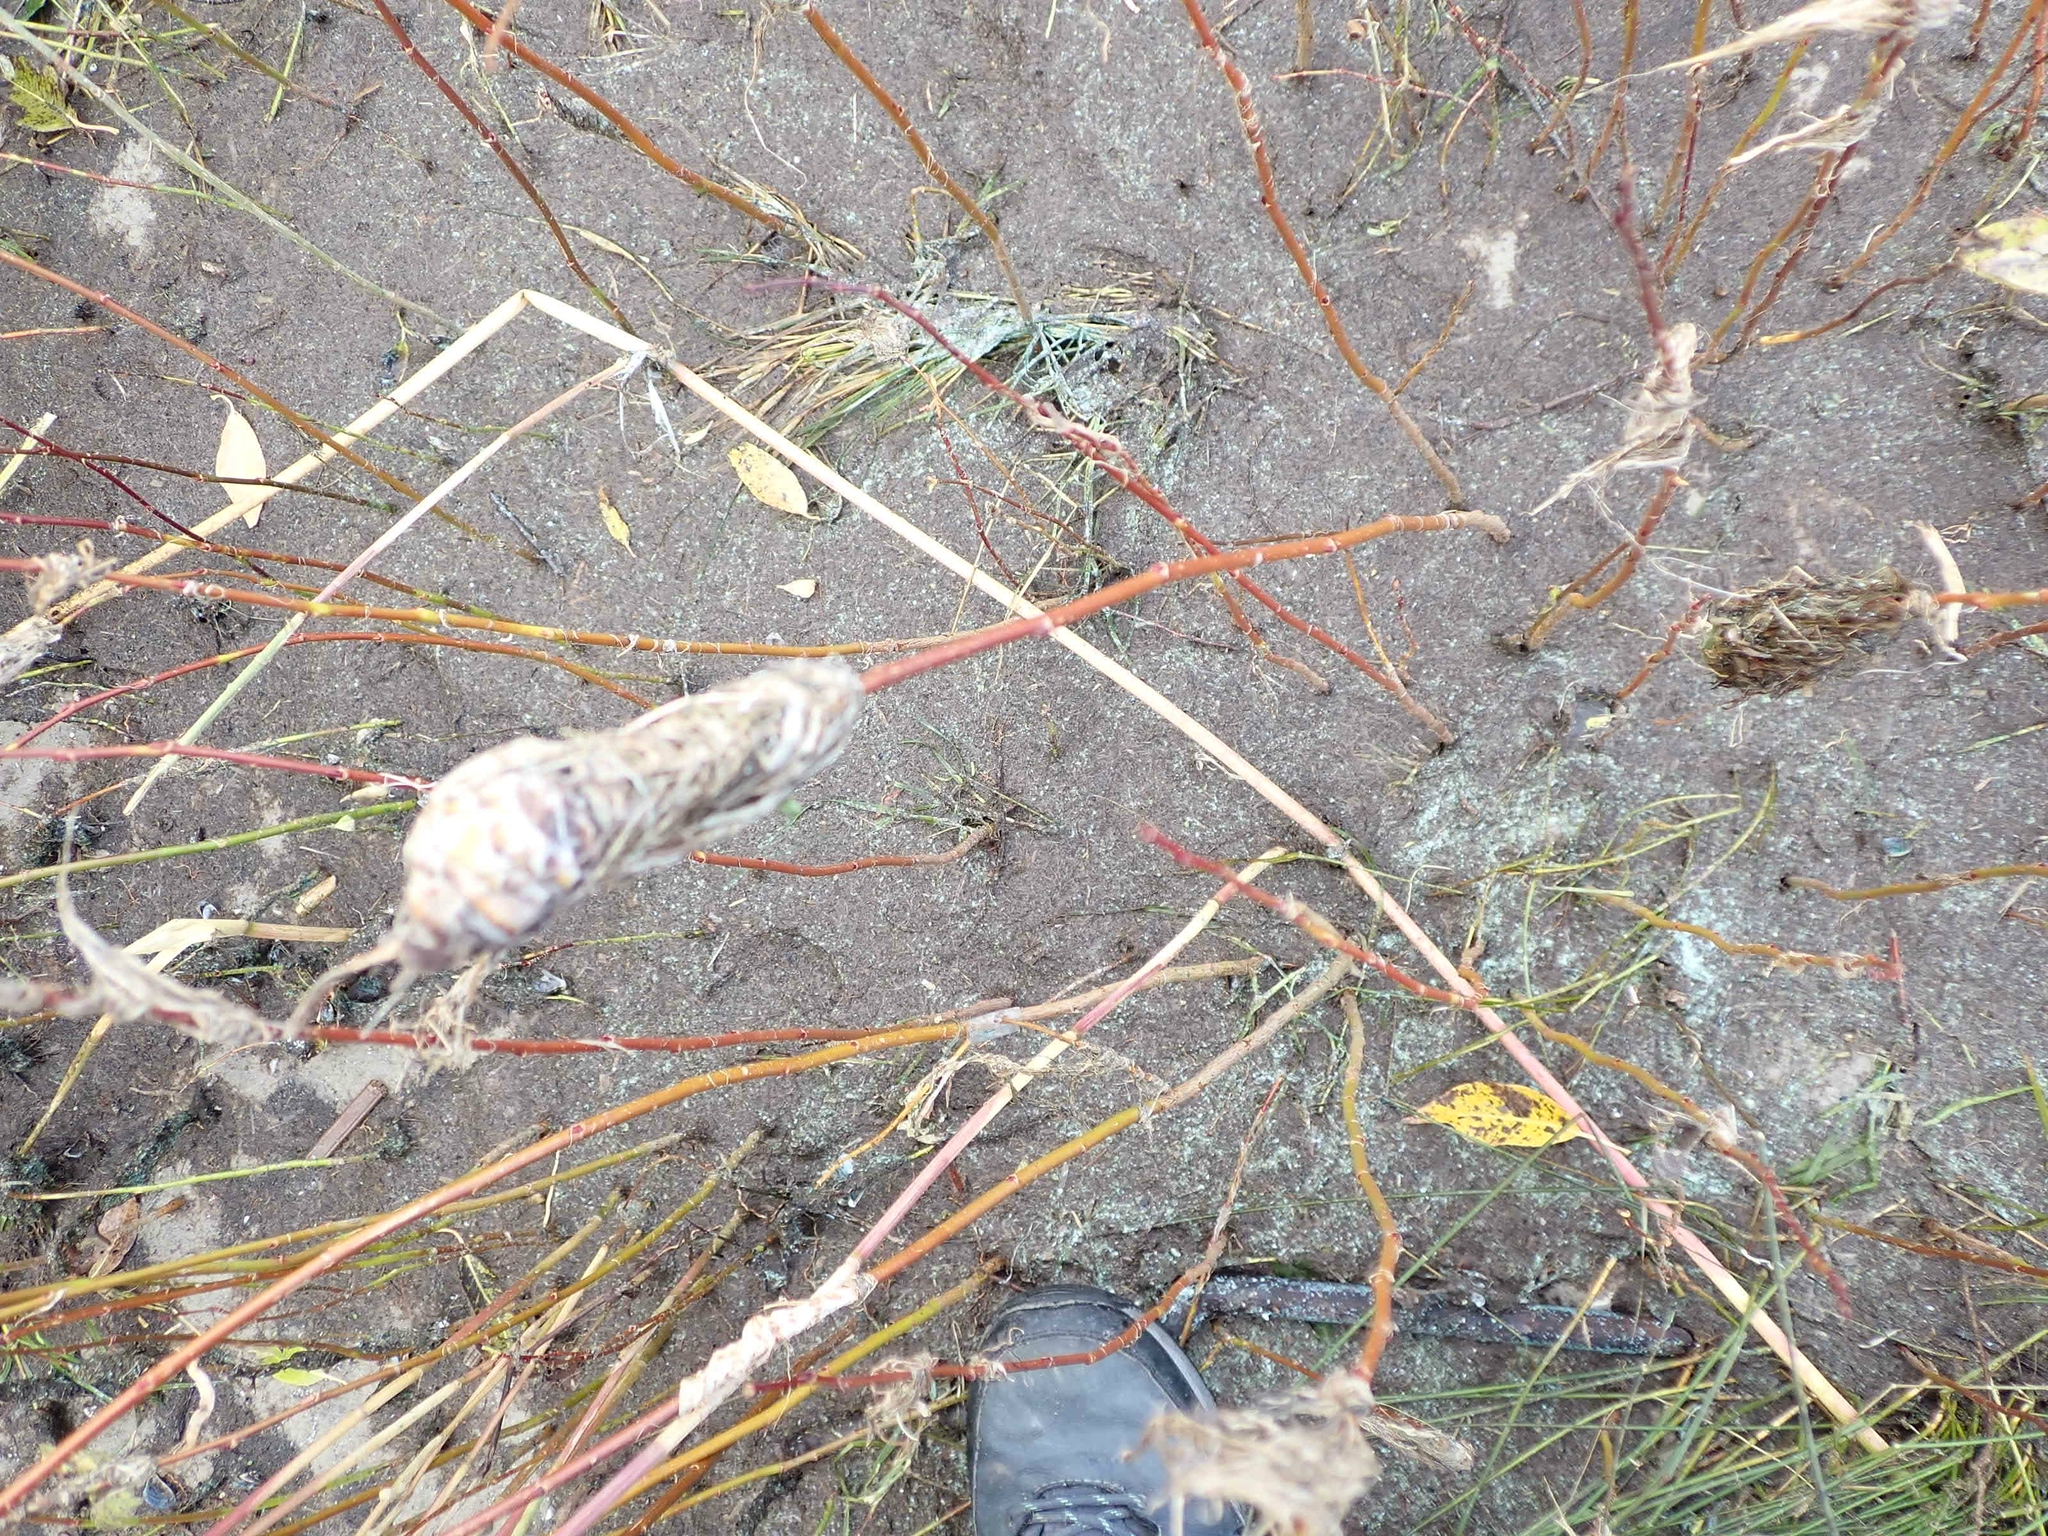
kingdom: Animalia
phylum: Arthropoda
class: Insecta
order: Diptera
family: Cecidomyiidae
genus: Rabdophaga
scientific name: Rabdophaga strobiloides
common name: Willow pinecone gall midge
